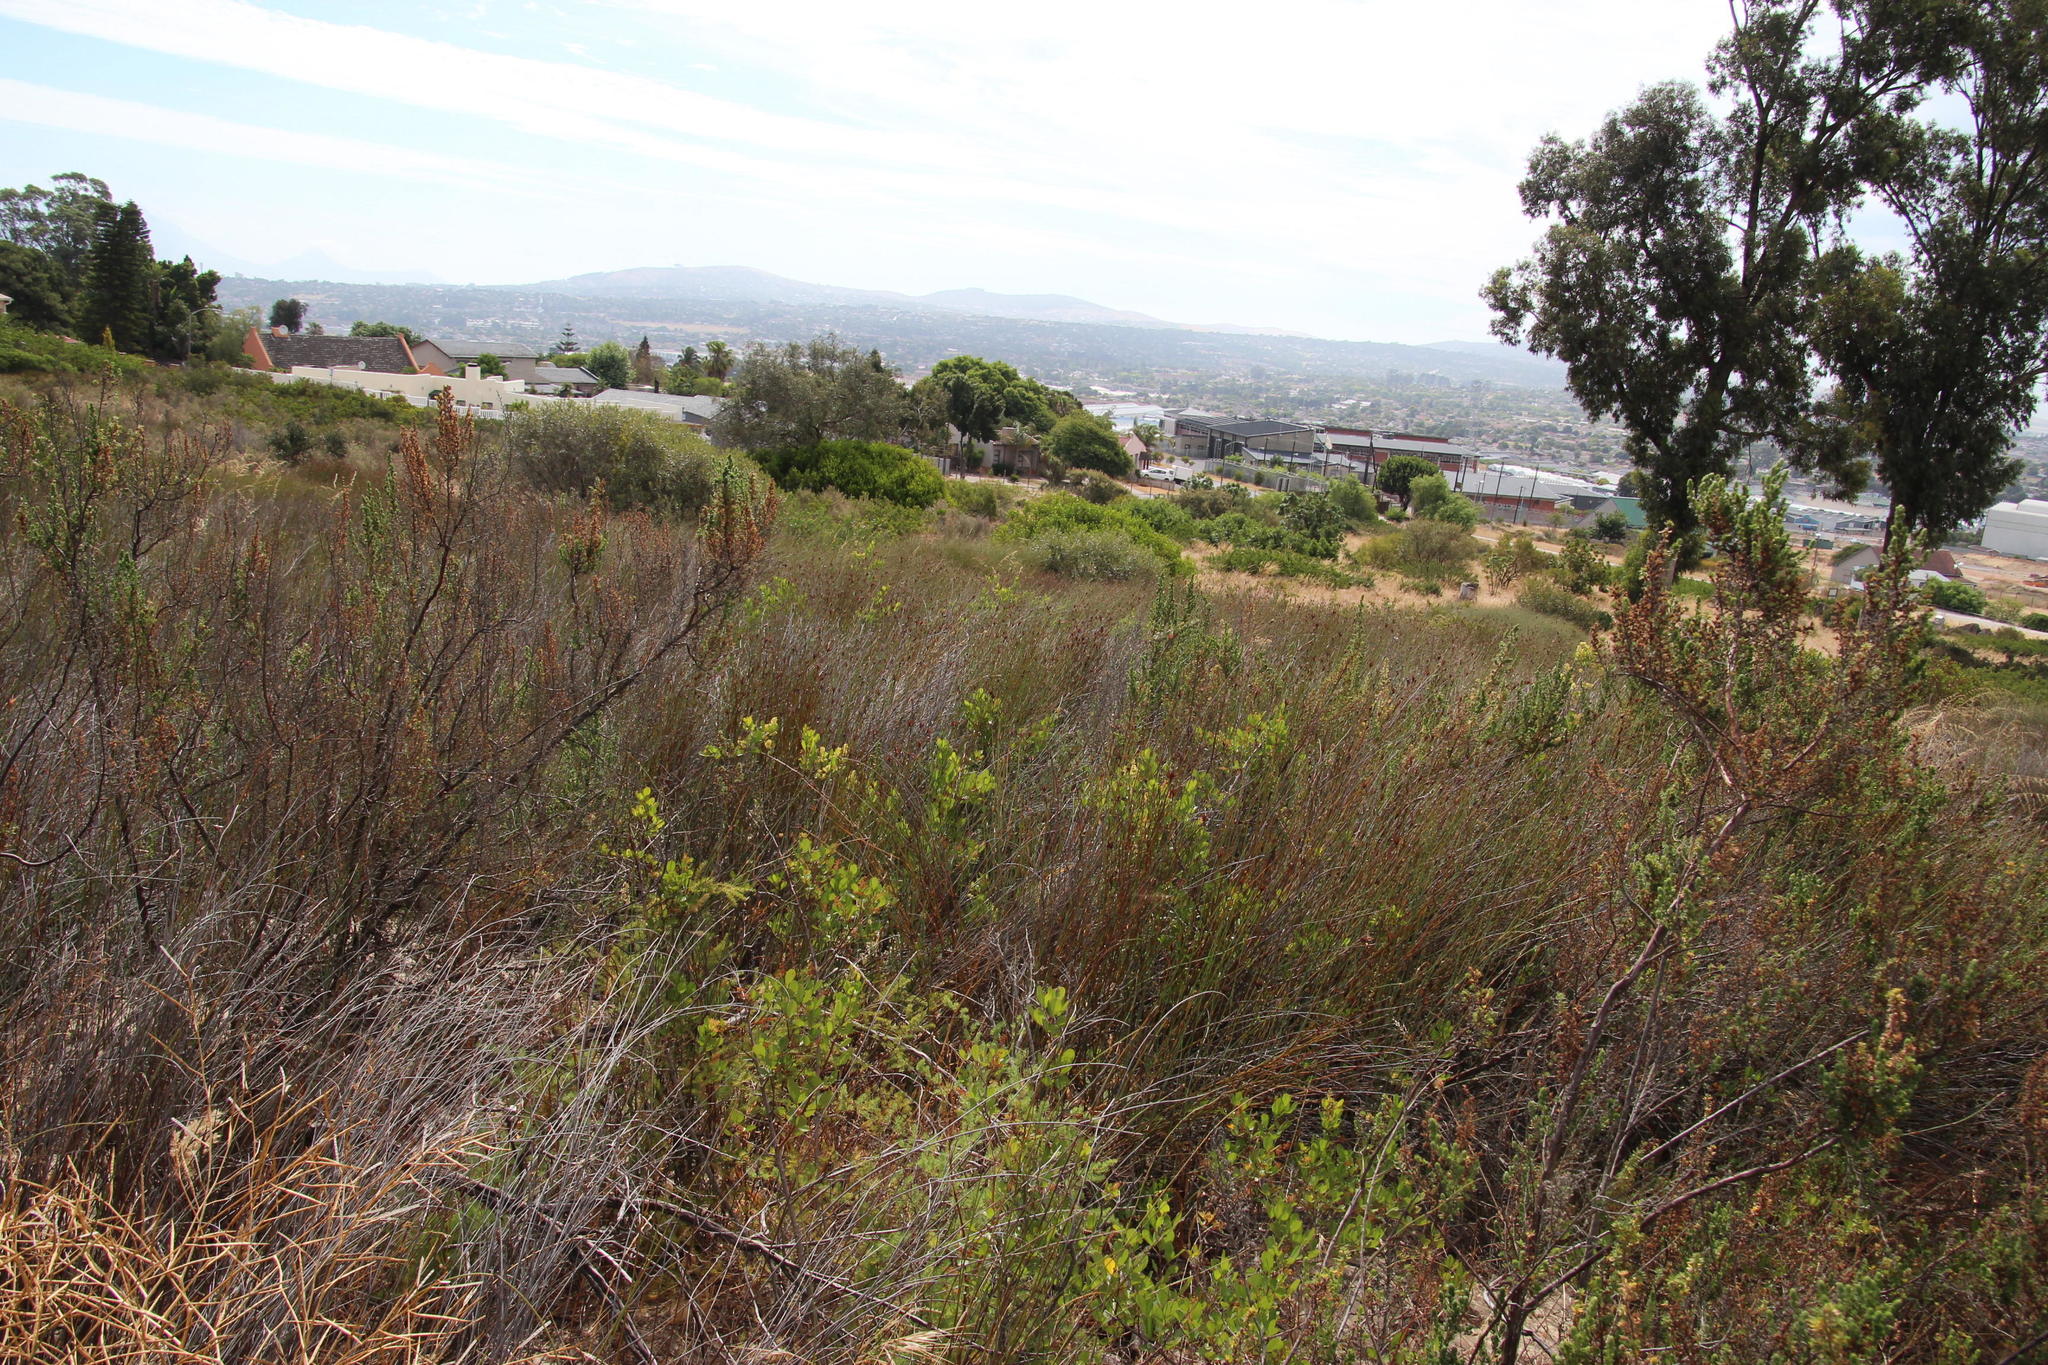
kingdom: Plantae
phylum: Tracheophyta
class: Magnoliopsida
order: Sapindales
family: Anacardiaceae
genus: Searsia
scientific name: Searsia lucida
